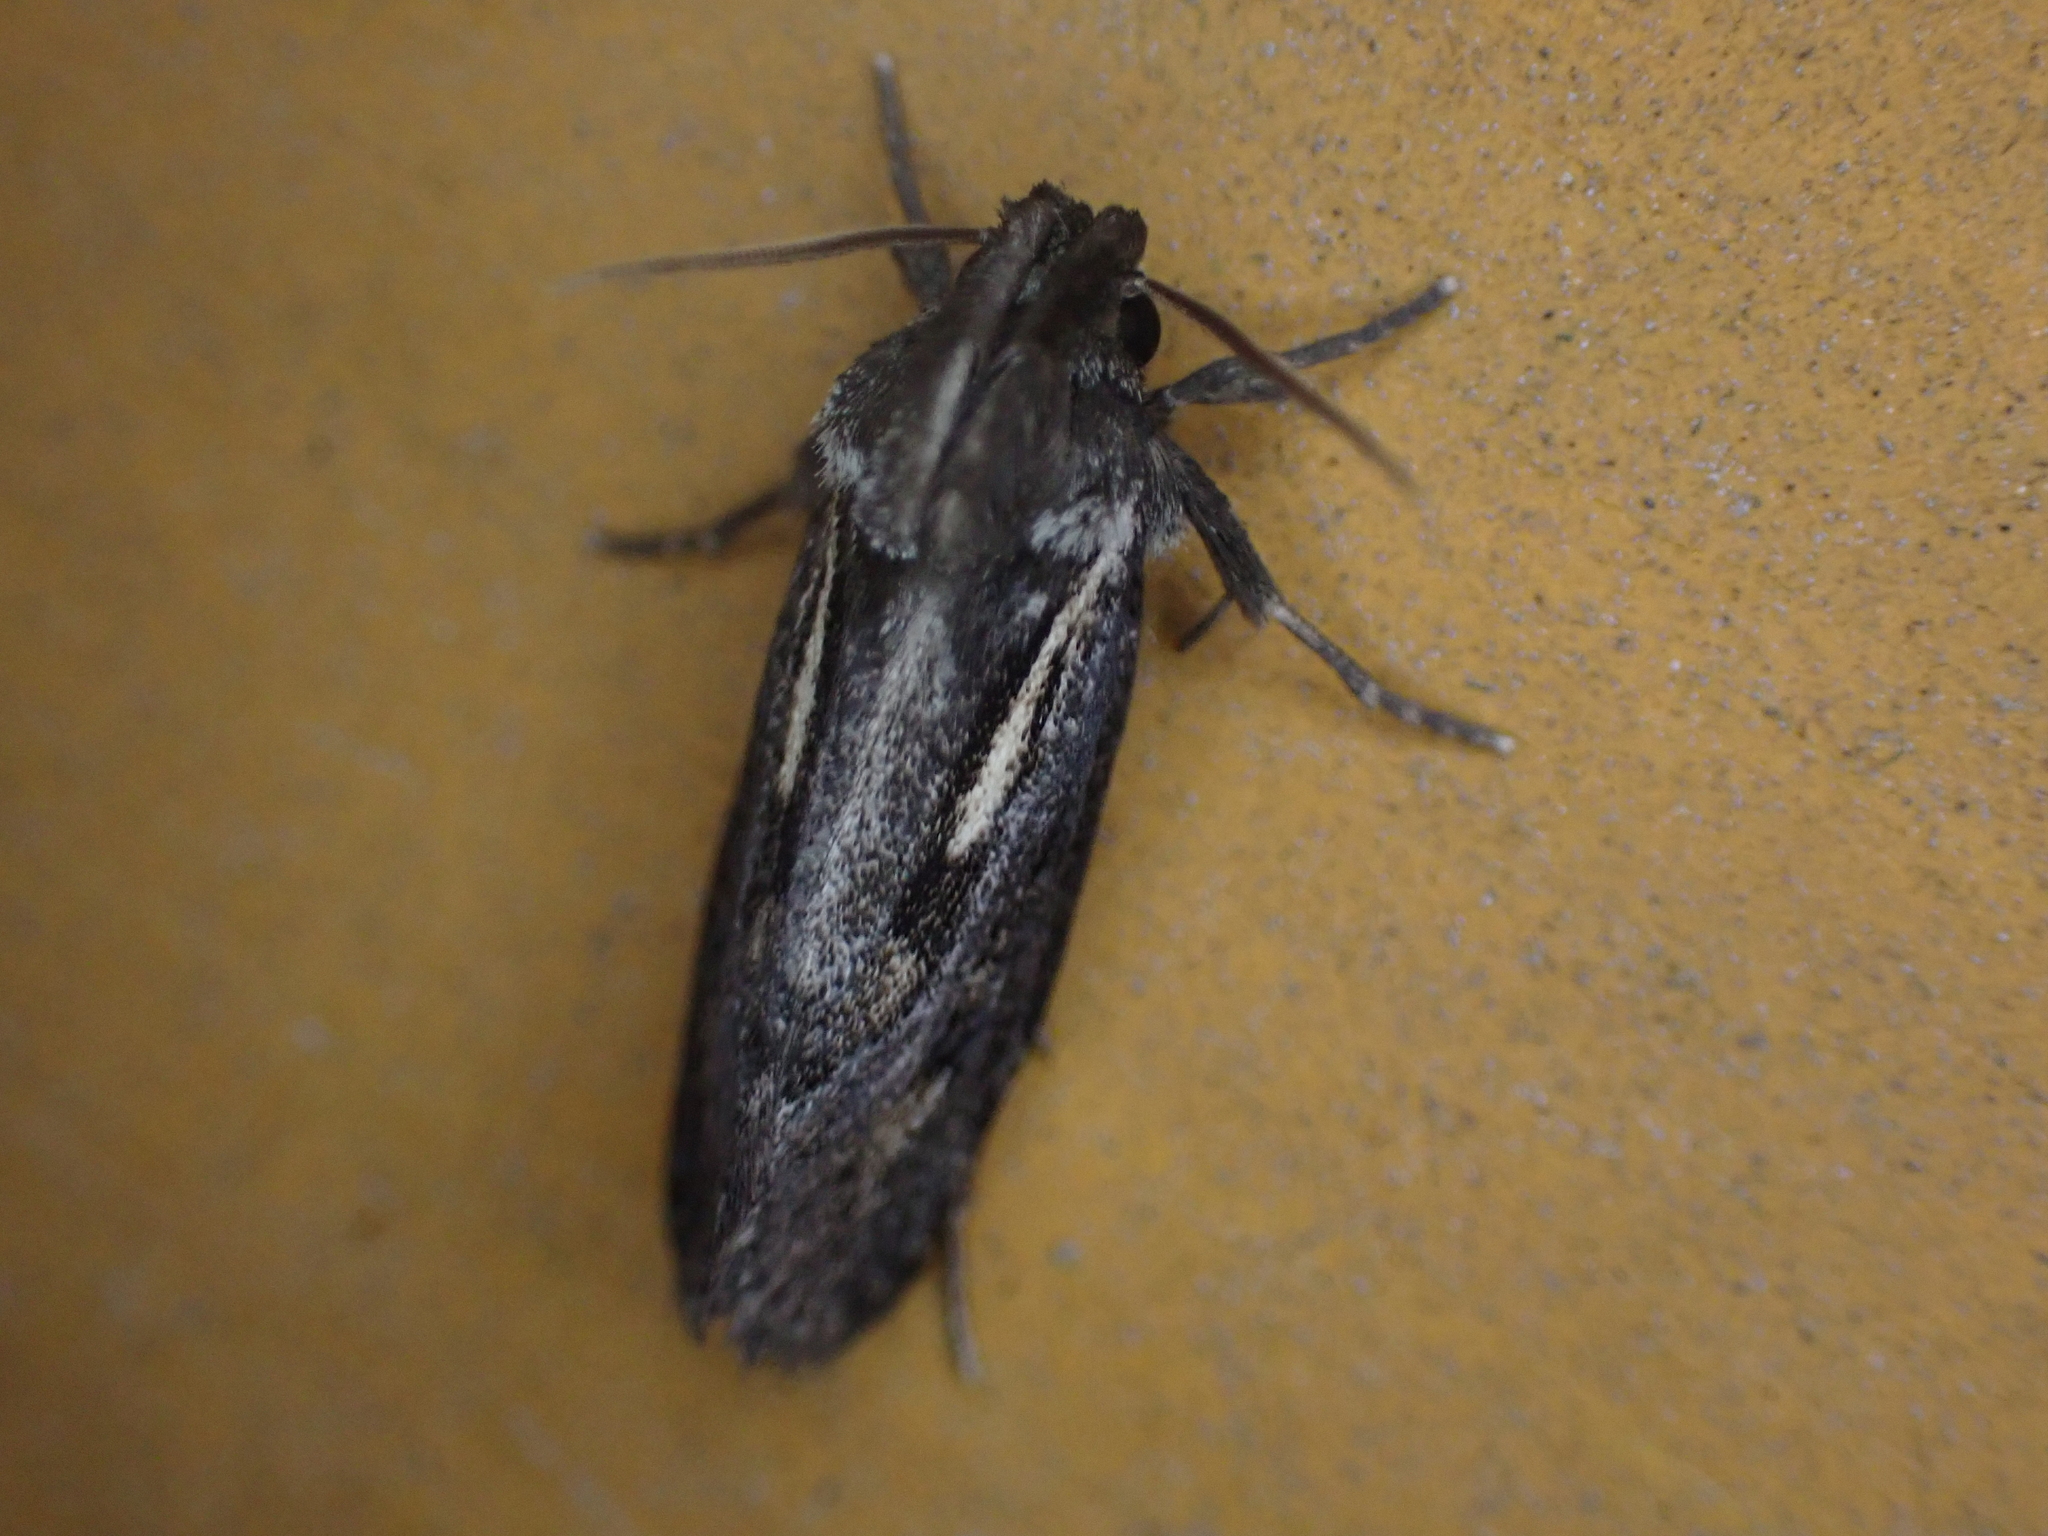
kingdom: Animalia
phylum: Arthropoda
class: Insecta
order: Lepidoptera
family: Tineidae
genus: Acrolophus
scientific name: Acrolophus popeanella
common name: Clemens' grass tubeworm moth
